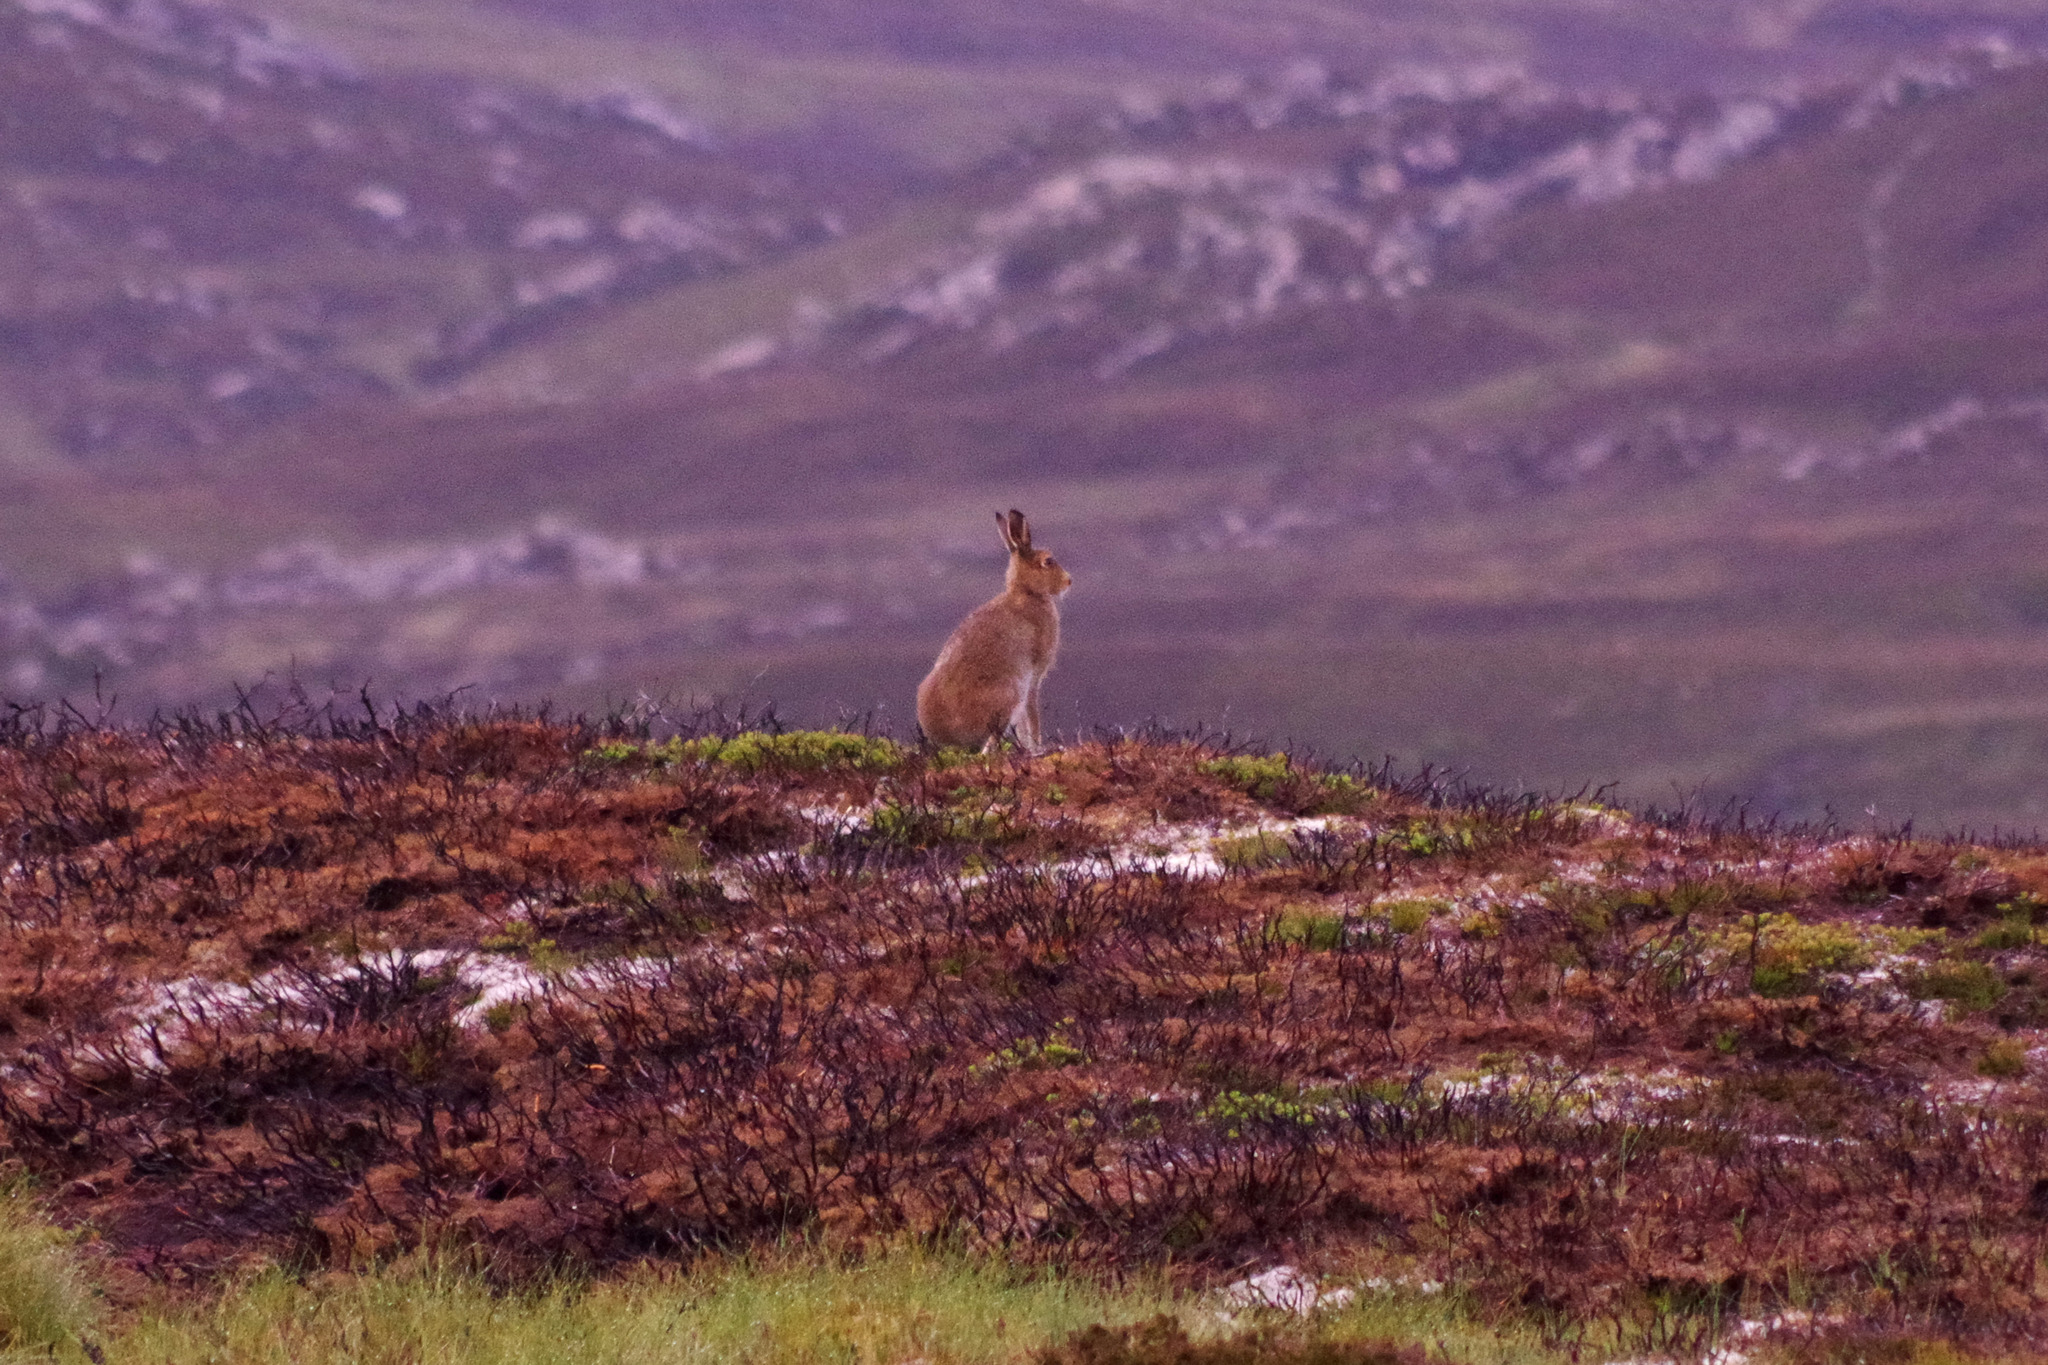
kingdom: Animalia
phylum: Chordata
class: Mammalia
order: Lagomorpha
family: Leporidae
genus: Lepus
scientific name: Lepus timidus
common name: Mountain hare
